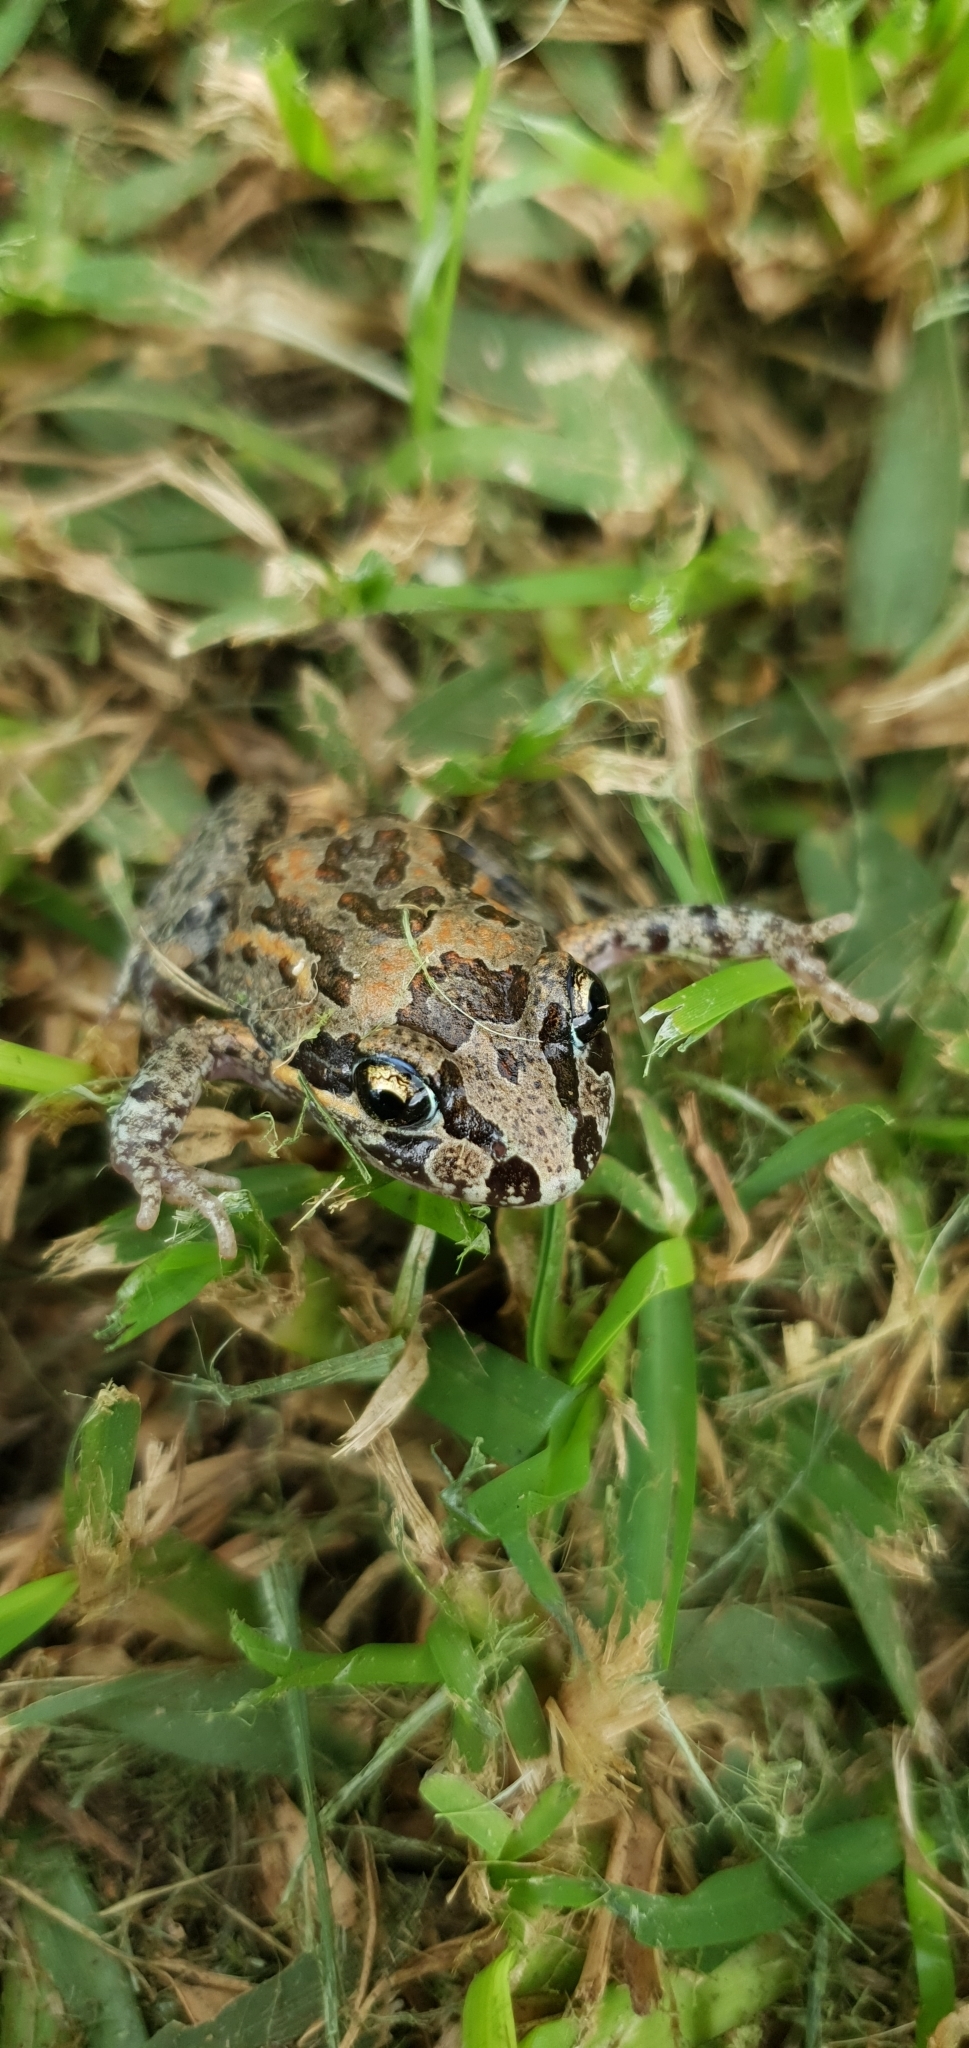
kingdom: Animalia
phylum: Chordata
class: Amphibia
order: Anura
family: Limnodynastidae
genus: Limnodynastes
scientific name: Limnodynastes salmini
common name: Salmon-striped frog
